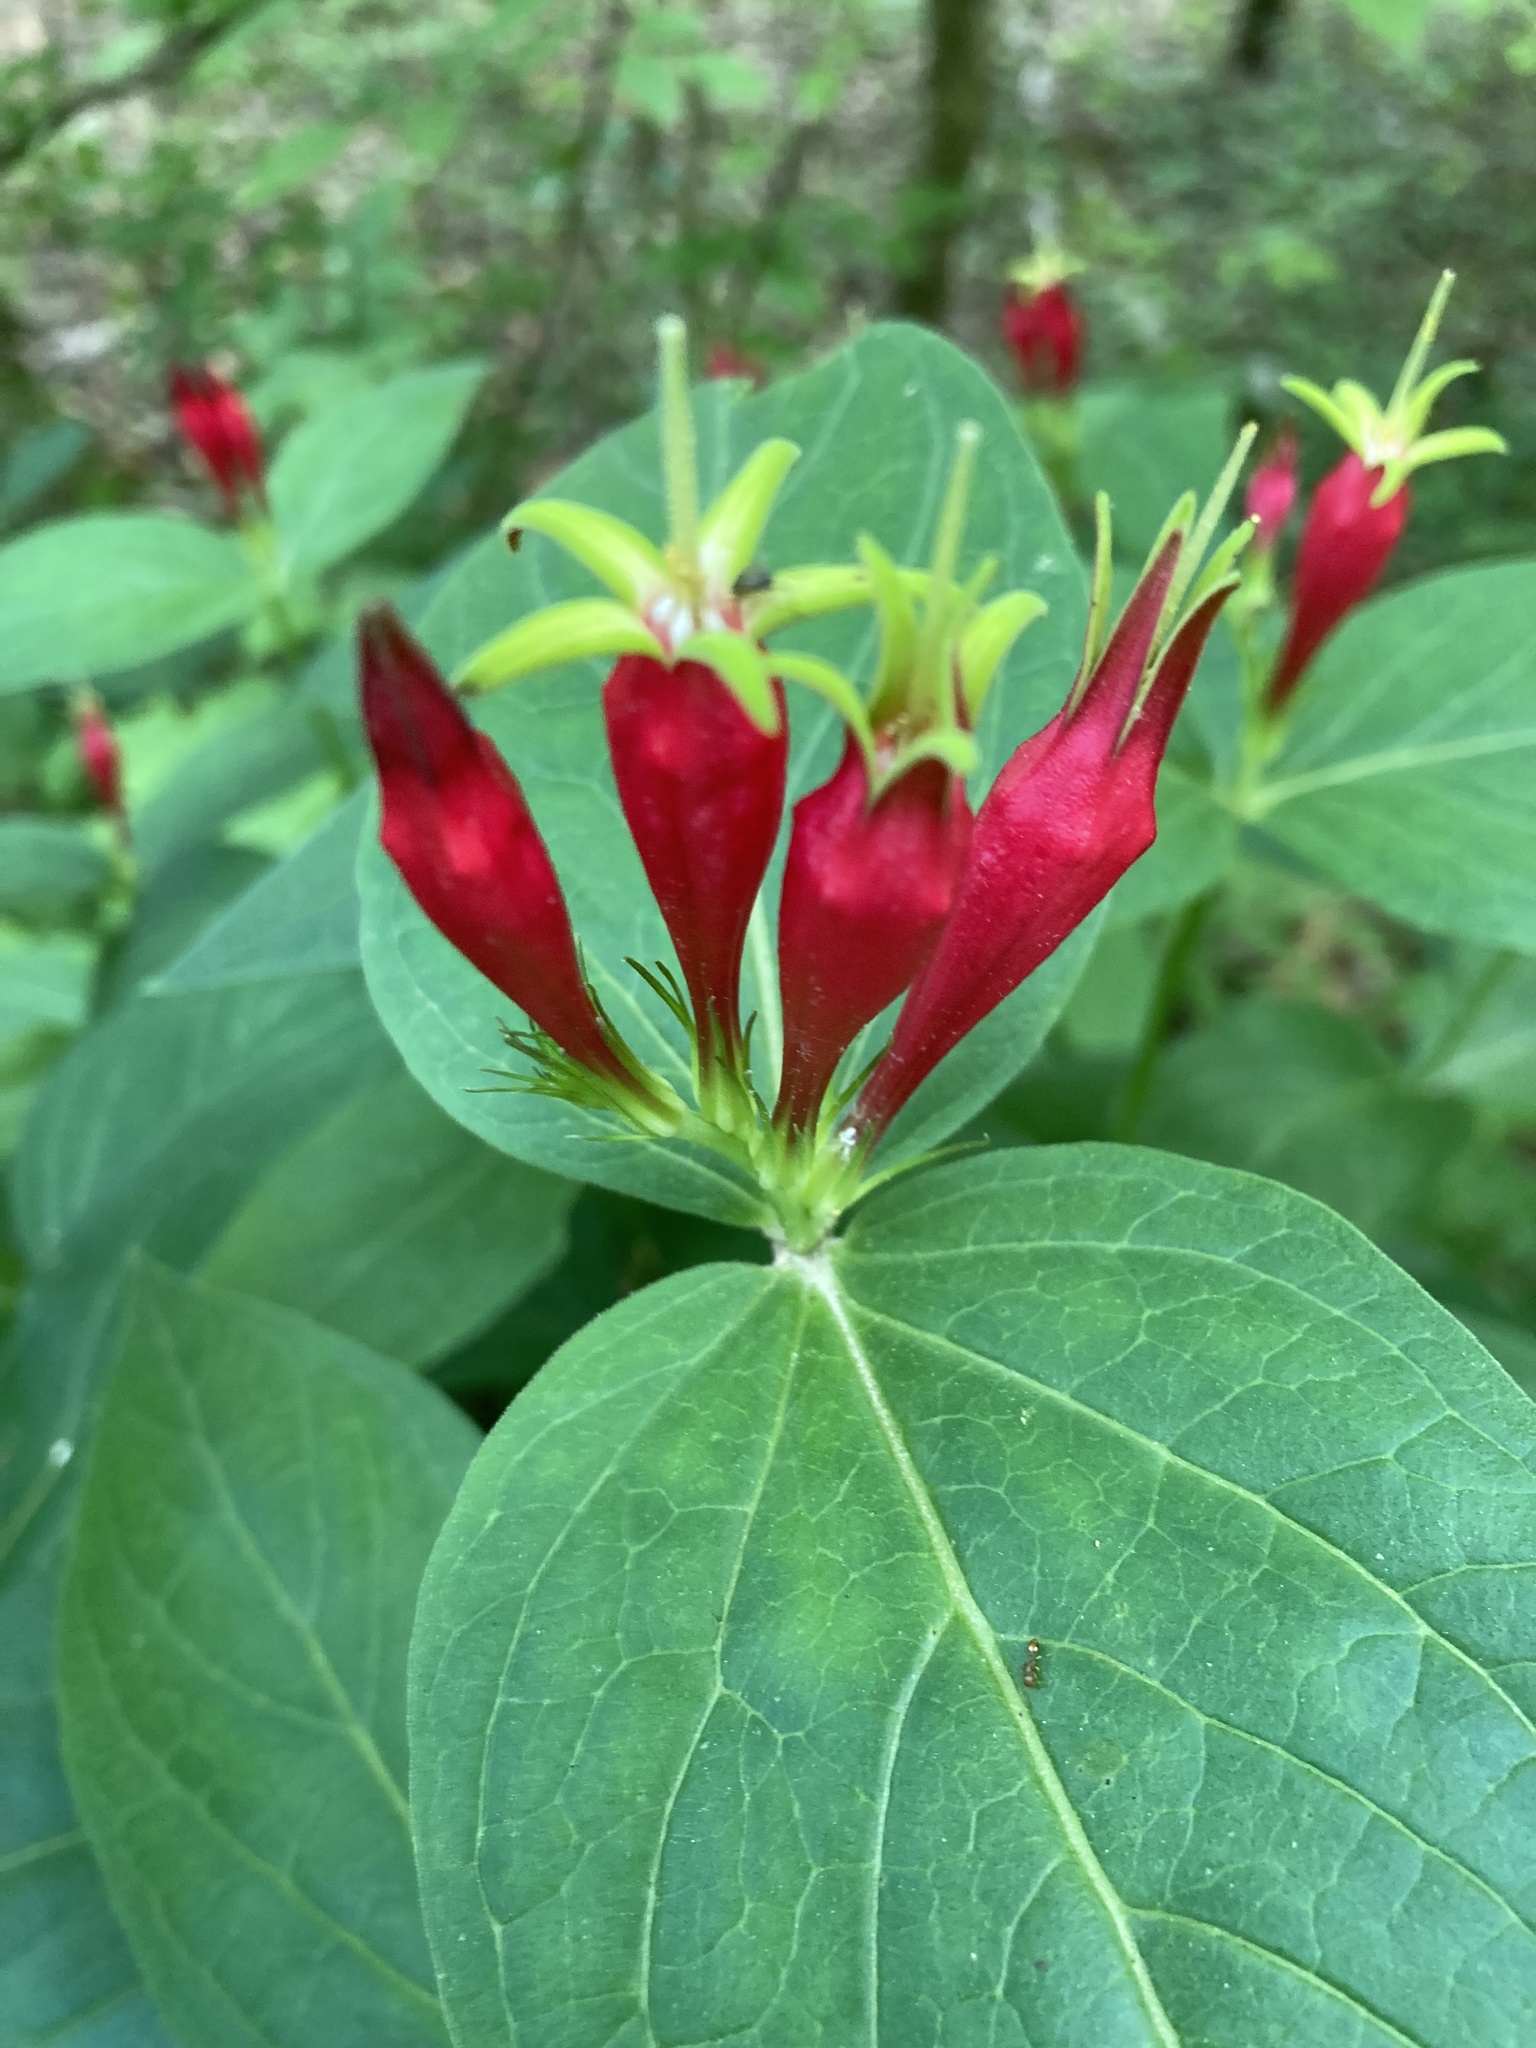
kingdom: Plantae
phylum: Tracheophyta
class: Magnoliopsida
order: Gentianales
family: Loganiaceae
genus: Spigelia
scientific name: Spigelia marilandica
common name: Indian-pink
